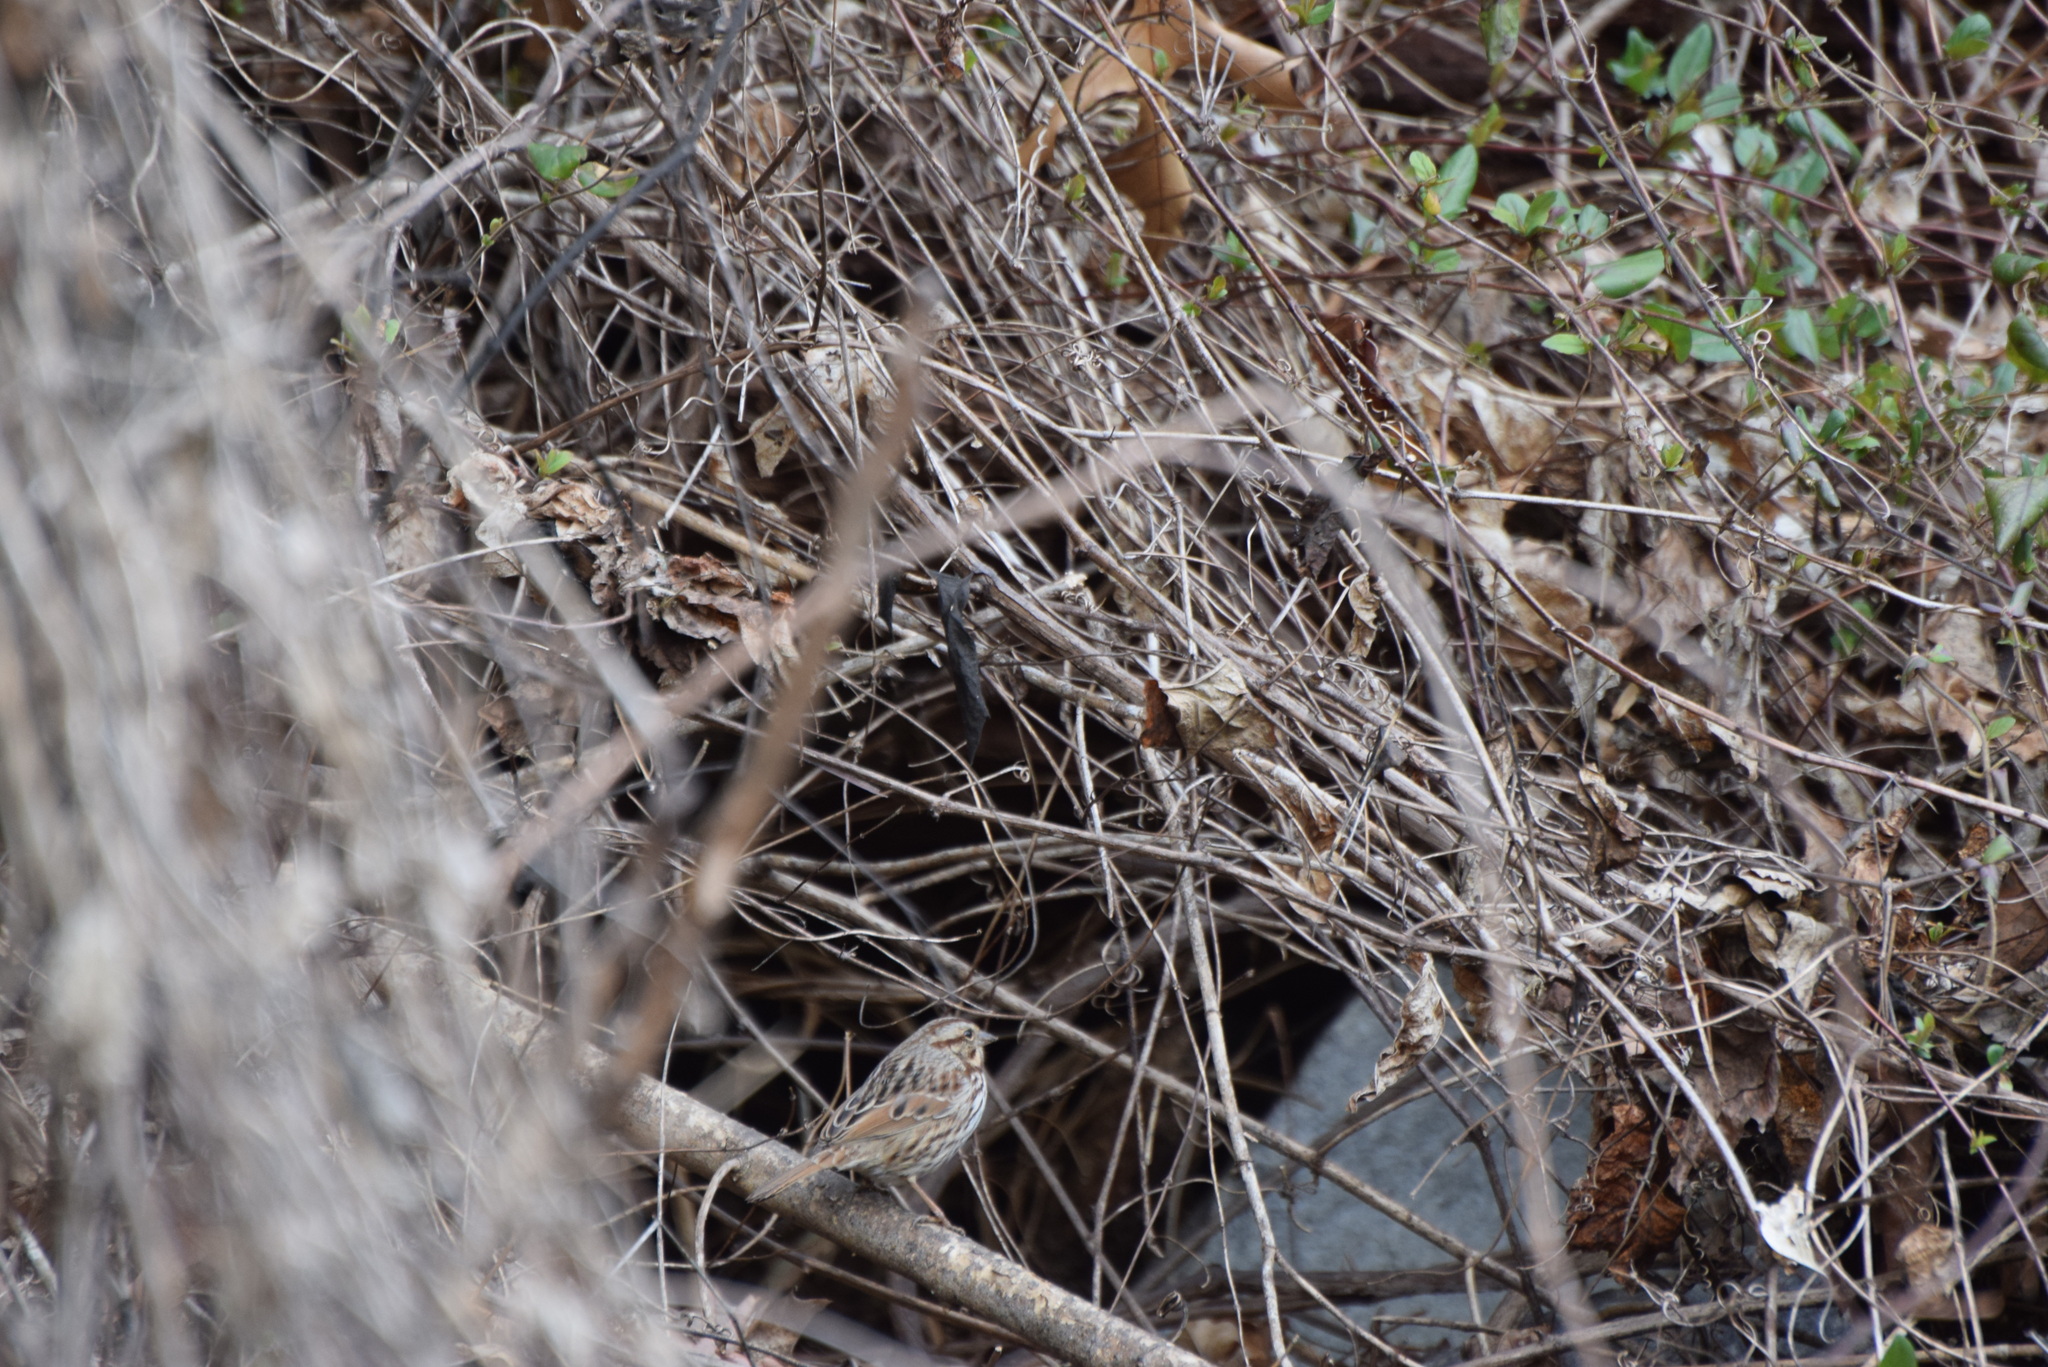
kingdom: Animalia
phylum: Chordata
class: Aves
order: Passeriformes
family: Passerellidae
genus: Melospiza
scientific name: Melospiza melodia
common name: Song sparrow
